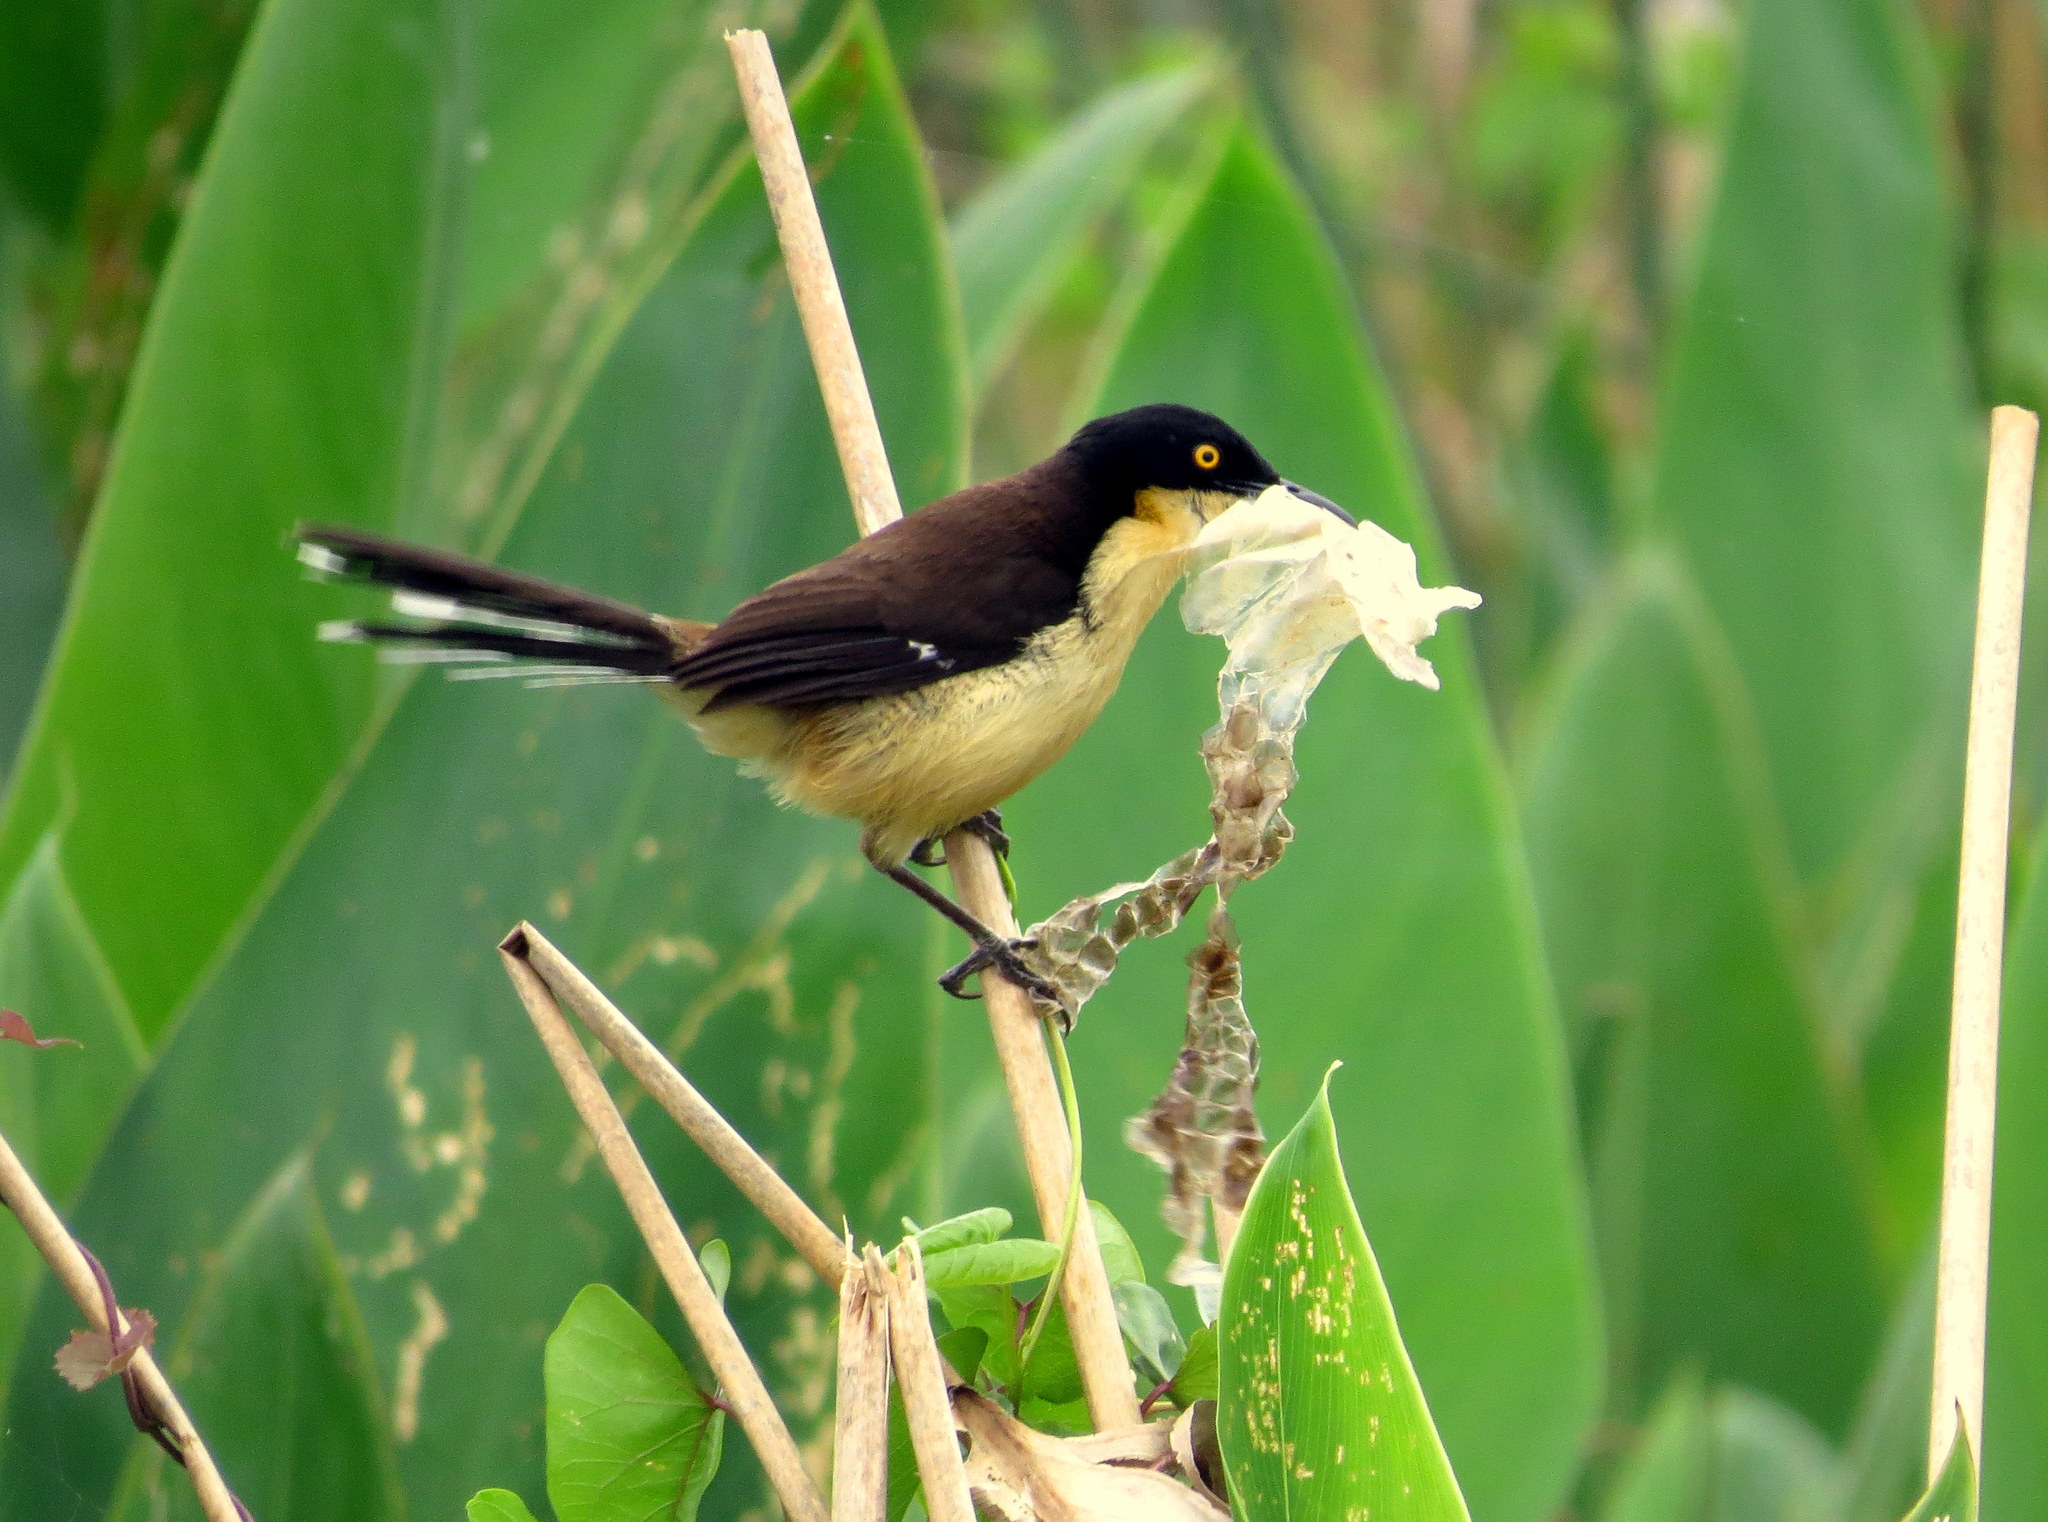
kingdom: Animalia
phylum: Chordata
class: Aves
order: Passeriformes
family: Donacobiidae
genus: Donacobius
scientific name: Donacobius atricapilla
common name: Black-capped donacobius
